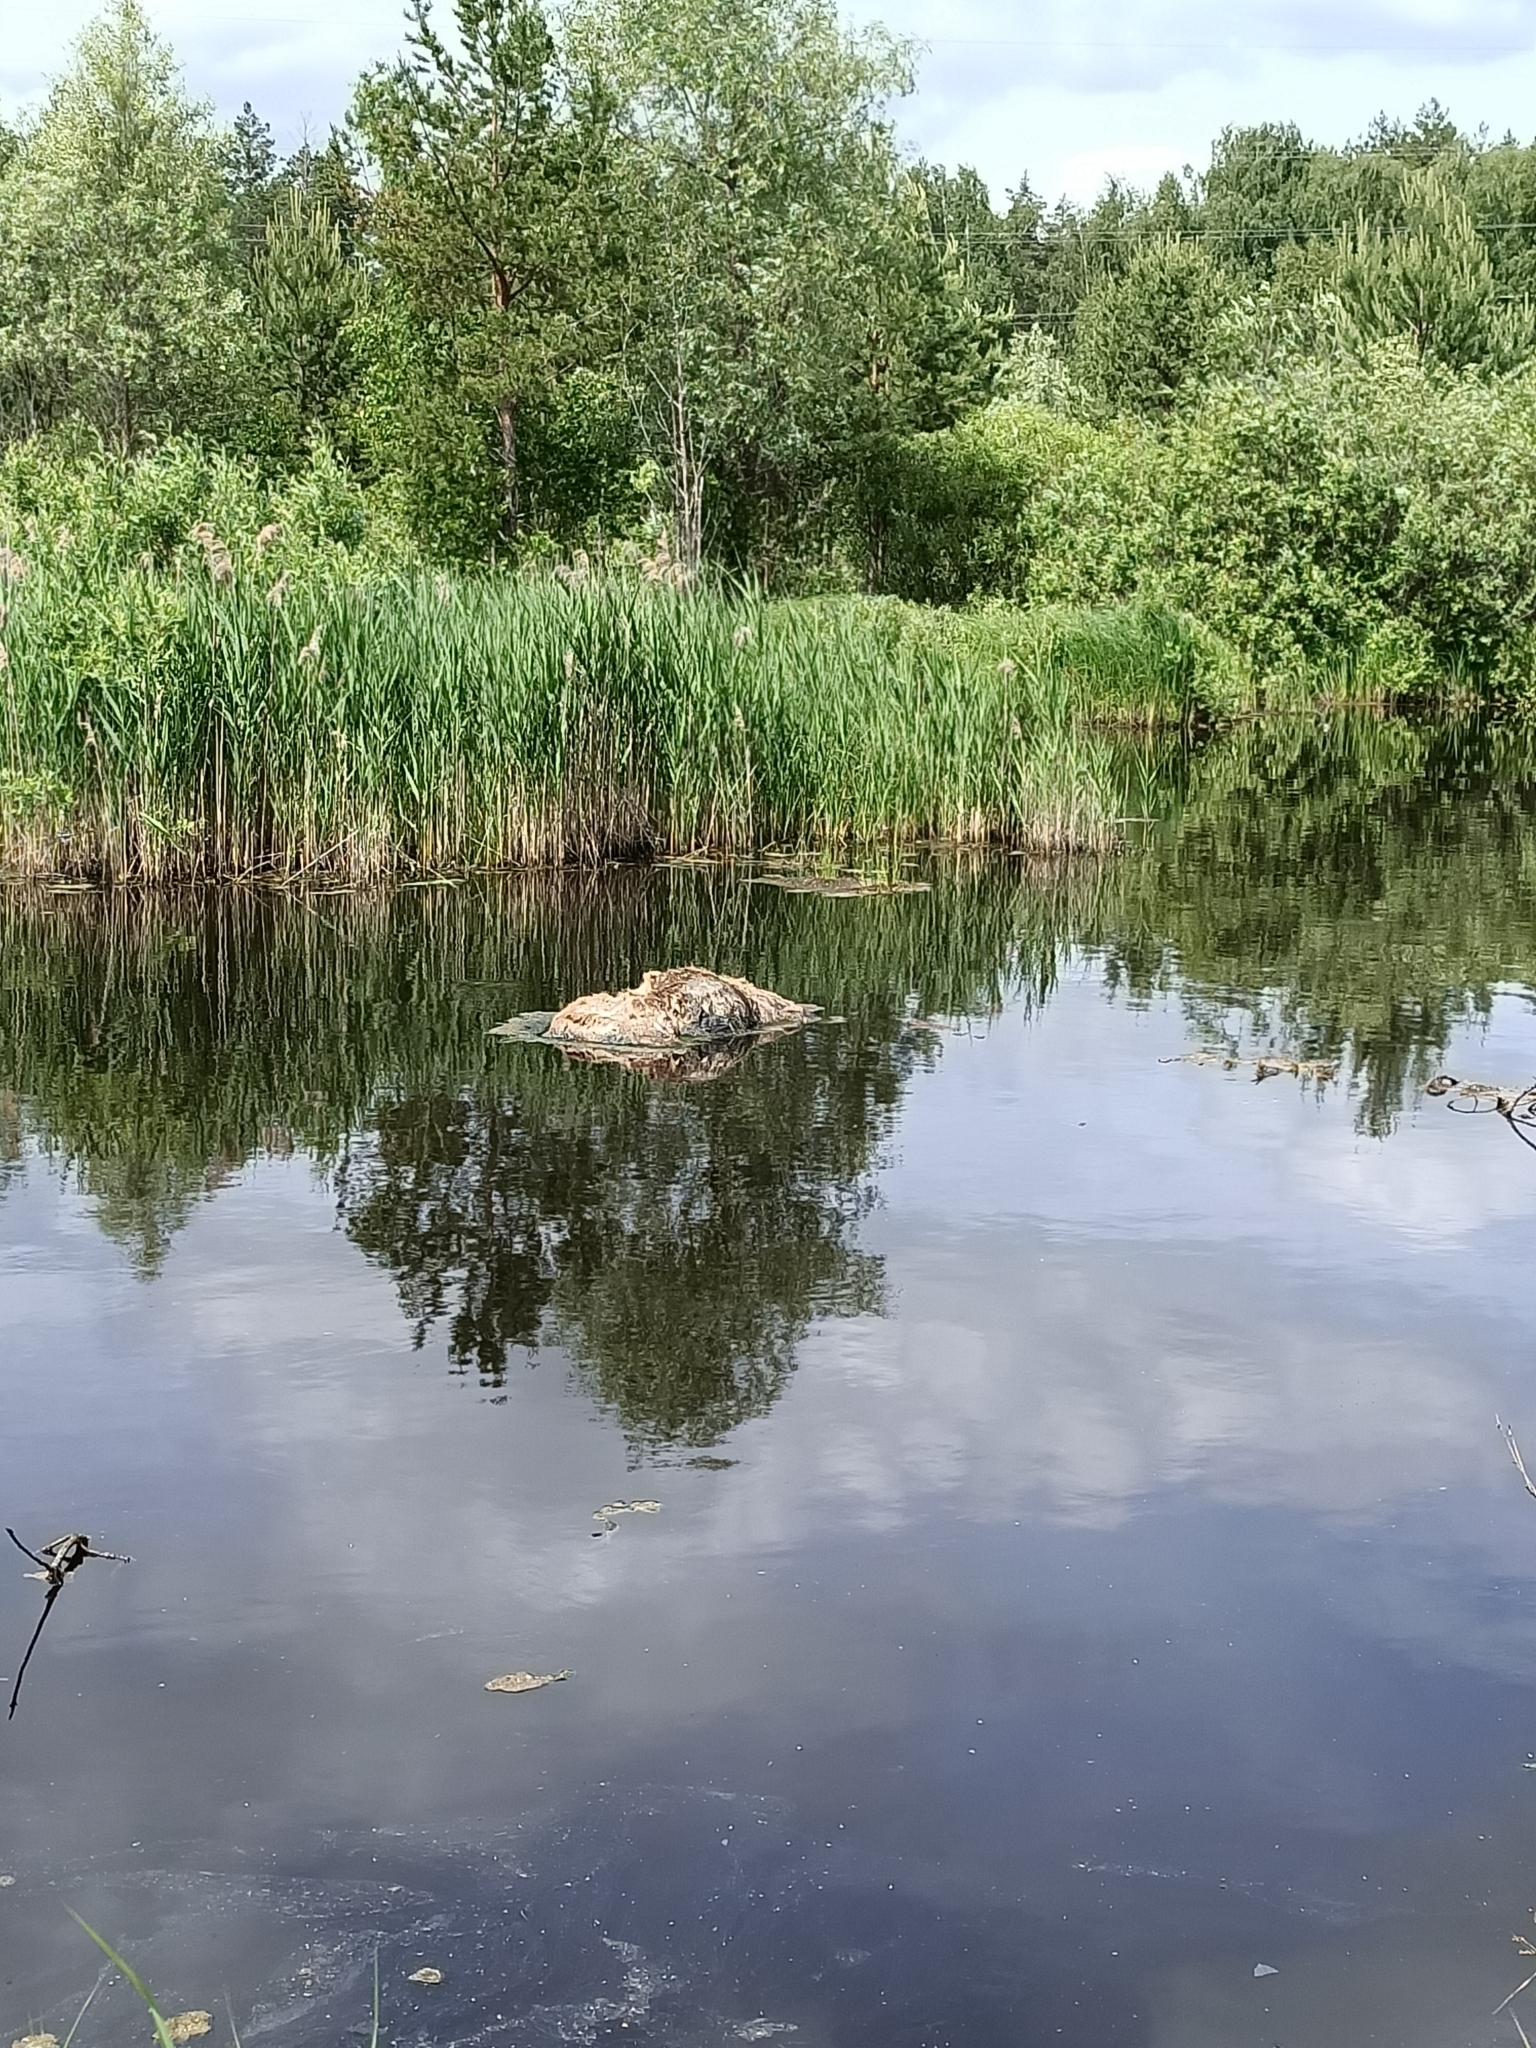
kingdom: Animalia
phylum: Chordata
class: Mammalia
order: Artiodactyla
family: Cervidae
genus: Alces
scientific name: Alces alces
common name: Moose
